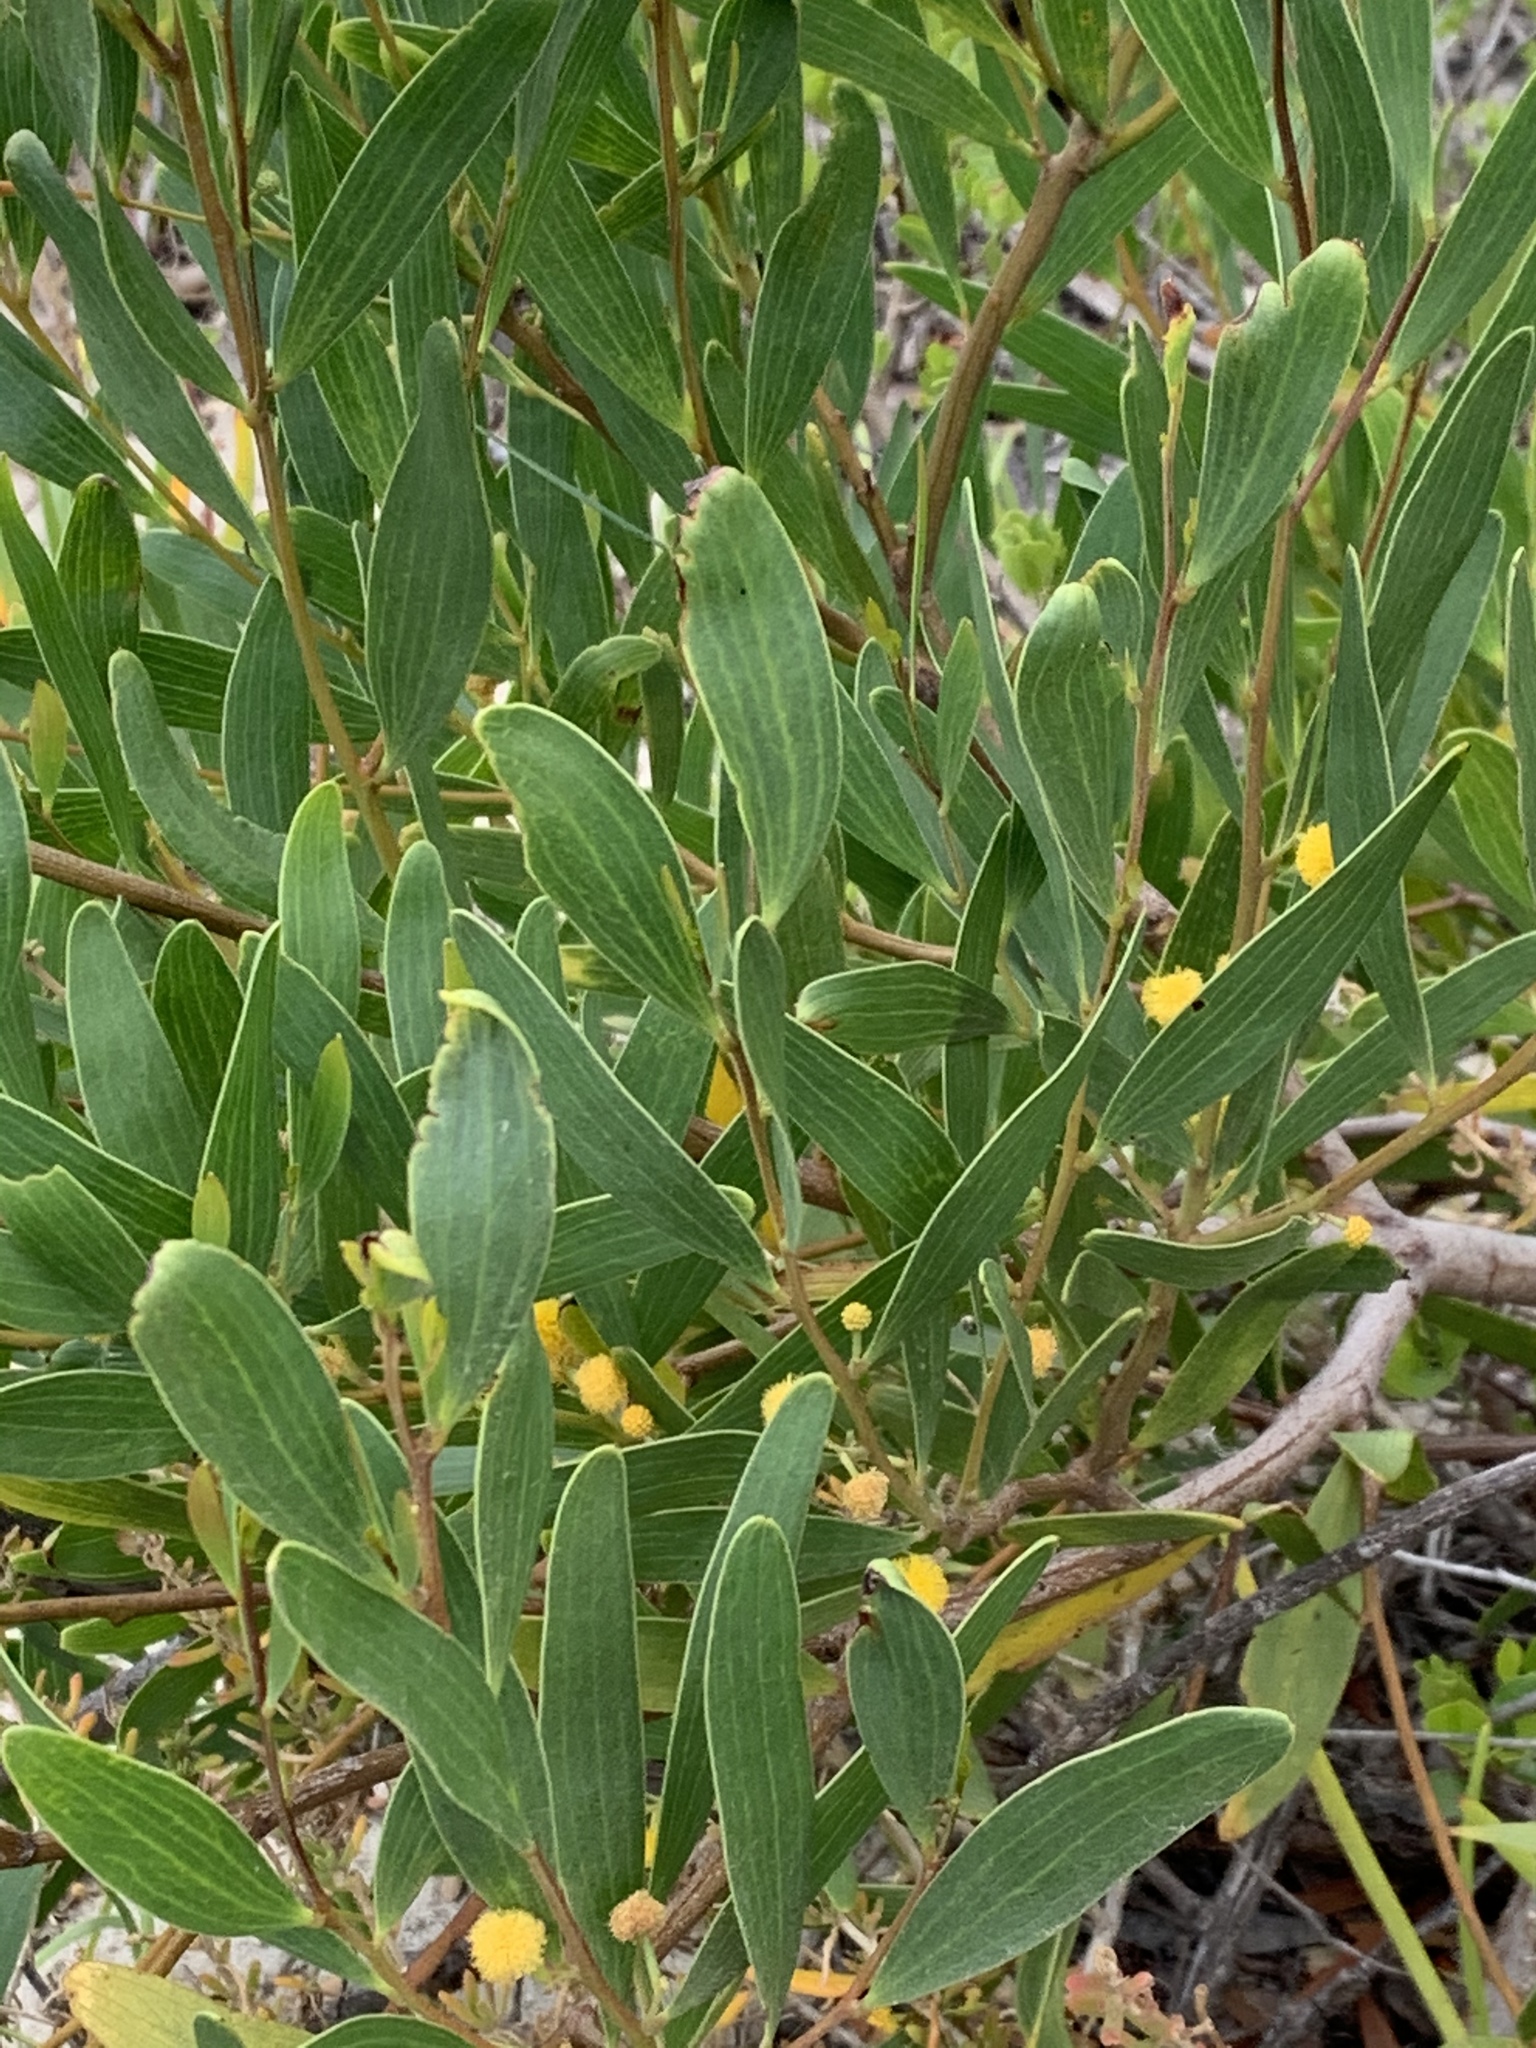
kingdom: Plantae
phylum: Tracheophyta
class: Magnoliopsida
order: Fabales
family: Fabaceae
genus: Acacia
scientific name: Acacia cyclops
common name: Coastal wattle
